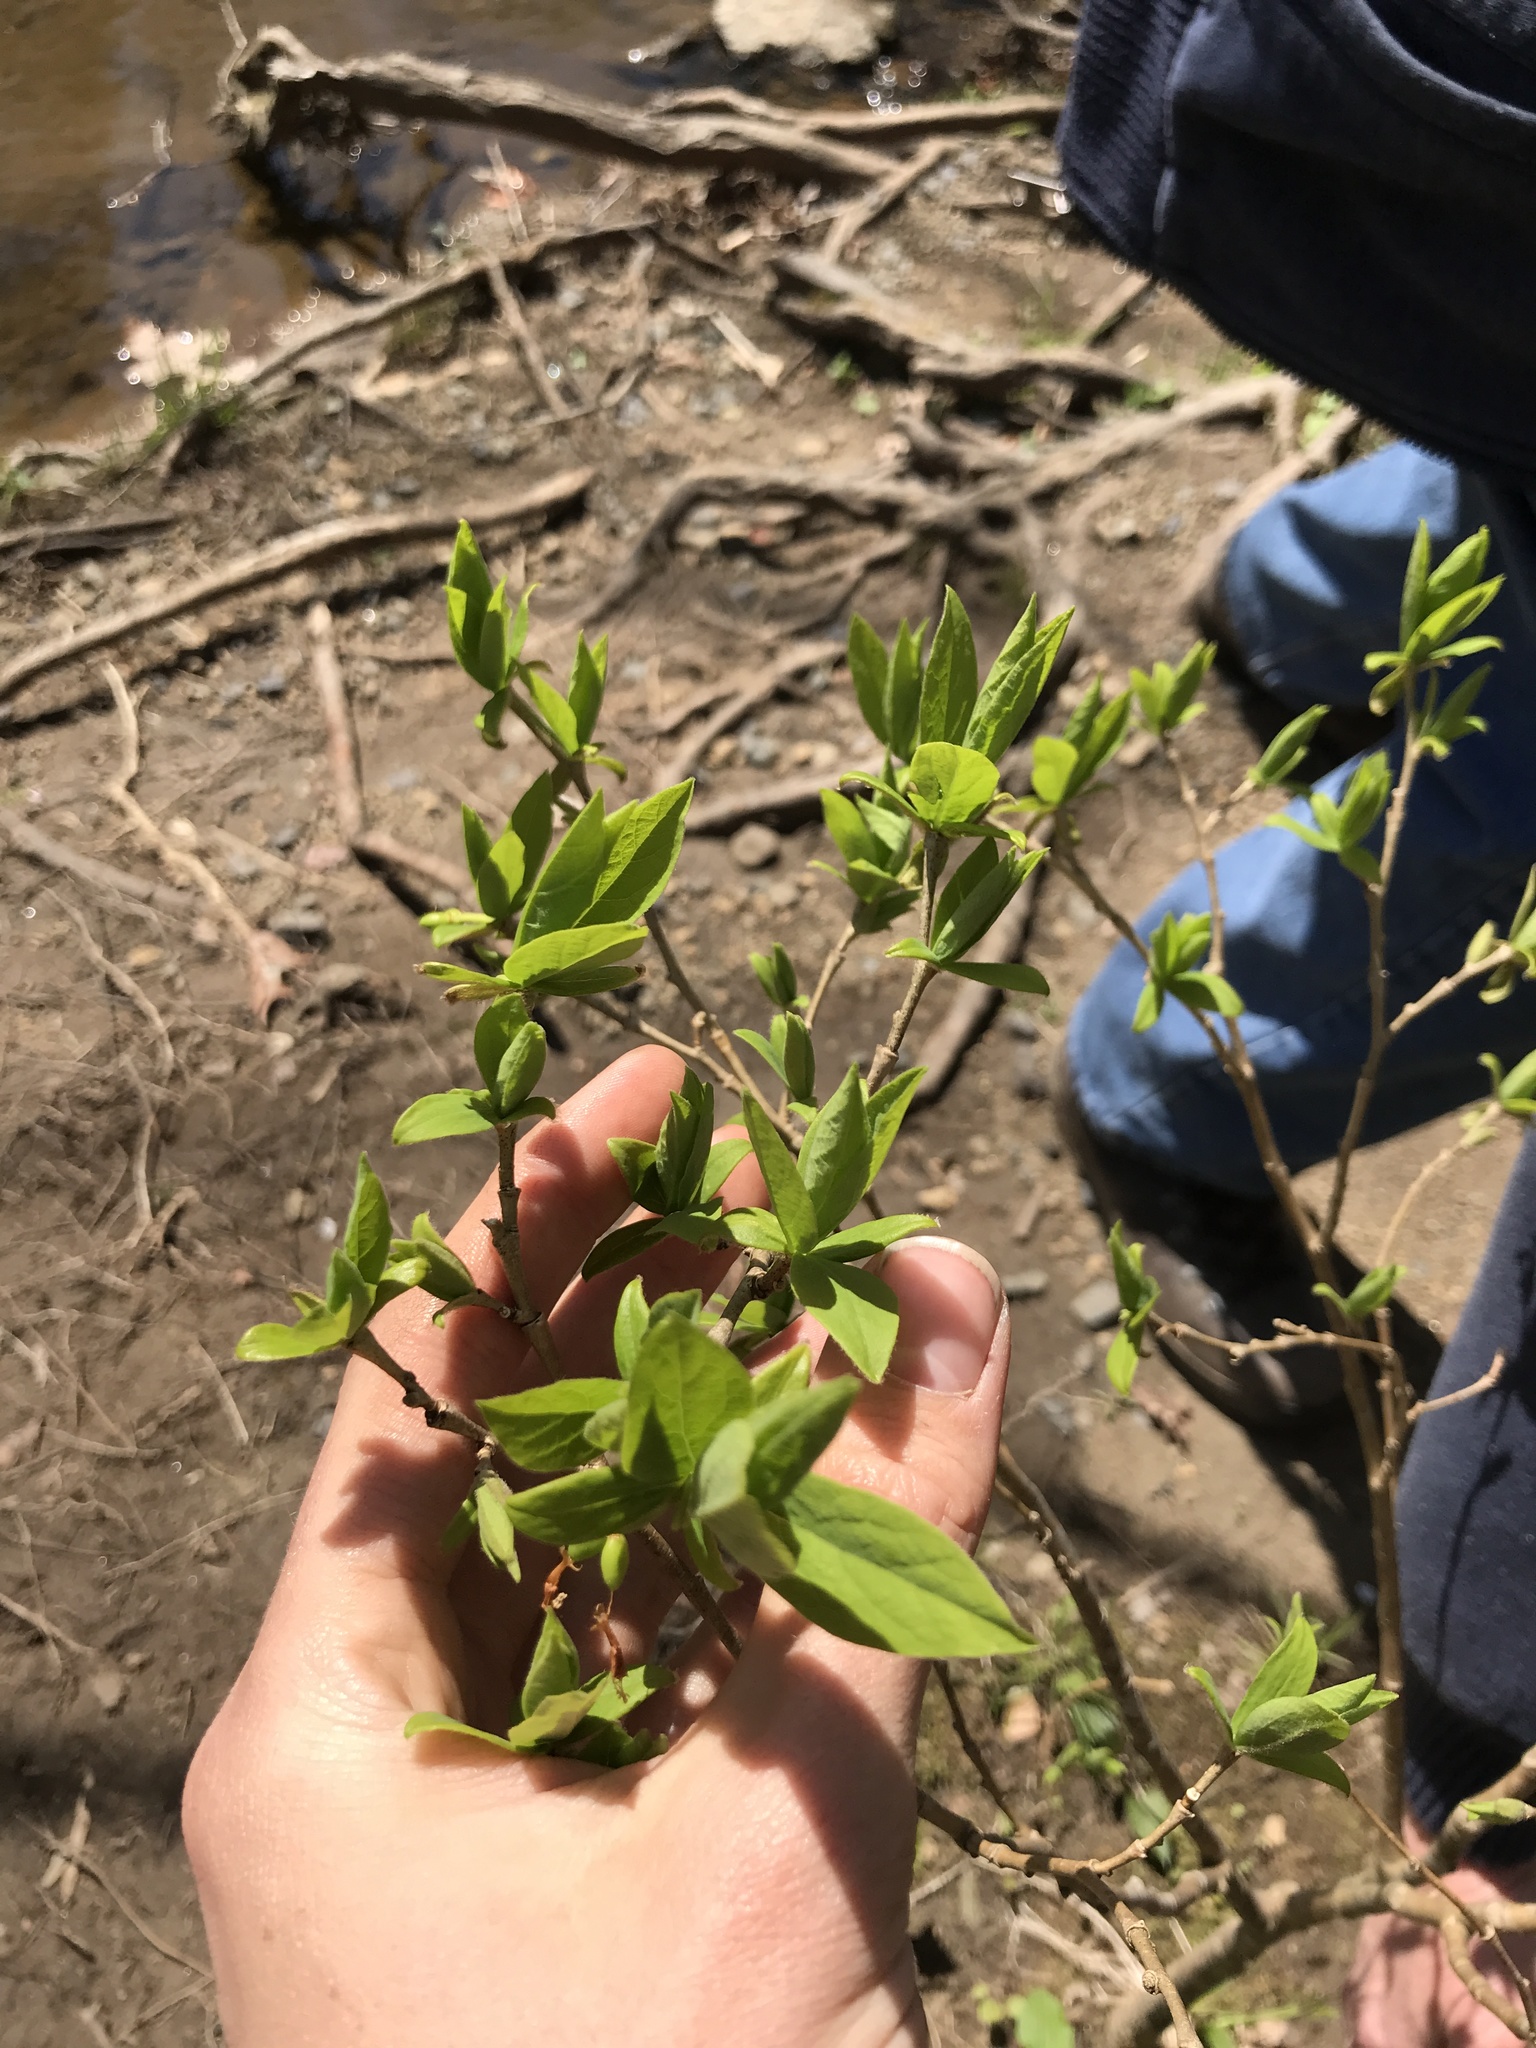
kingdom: Plantae
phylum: Tracheophyta
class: Magnoliopsida
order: Malvales
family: Thymelaeaceae
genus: Dirca
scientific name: Dirca palustris
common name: Leatherwood
